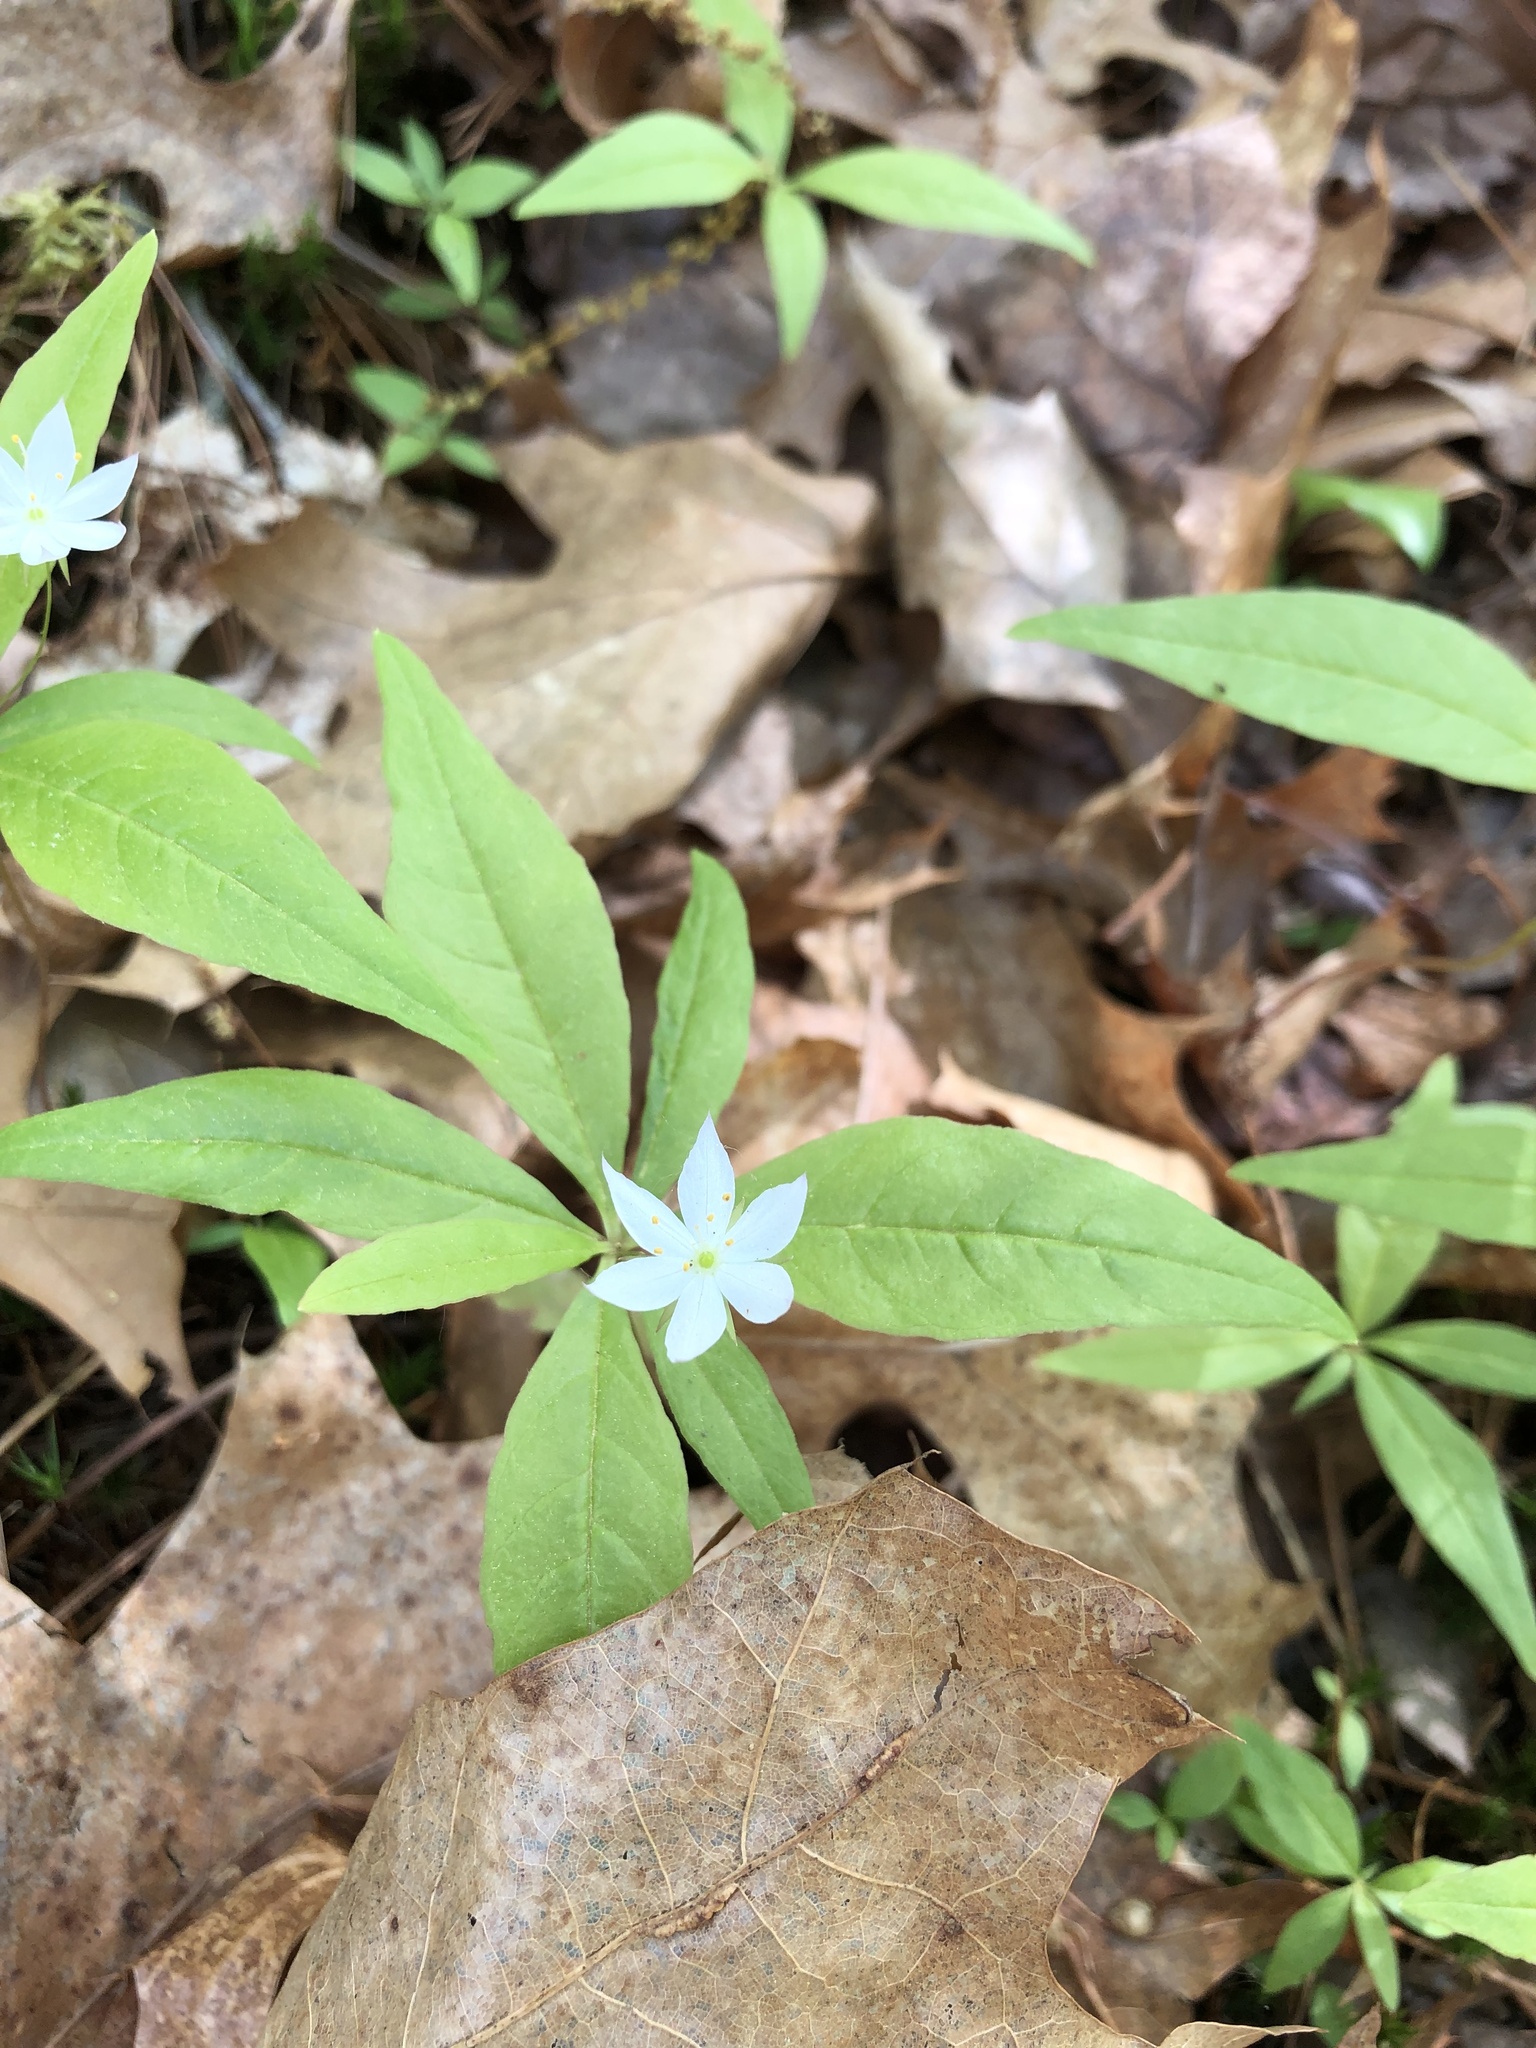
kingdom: Plantae
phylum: Tracheophyta
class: Magnoliopsida
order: Ericales
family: Primulaceae
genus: Lysimachia
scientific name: Lysimachia borealis
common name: American starflower
